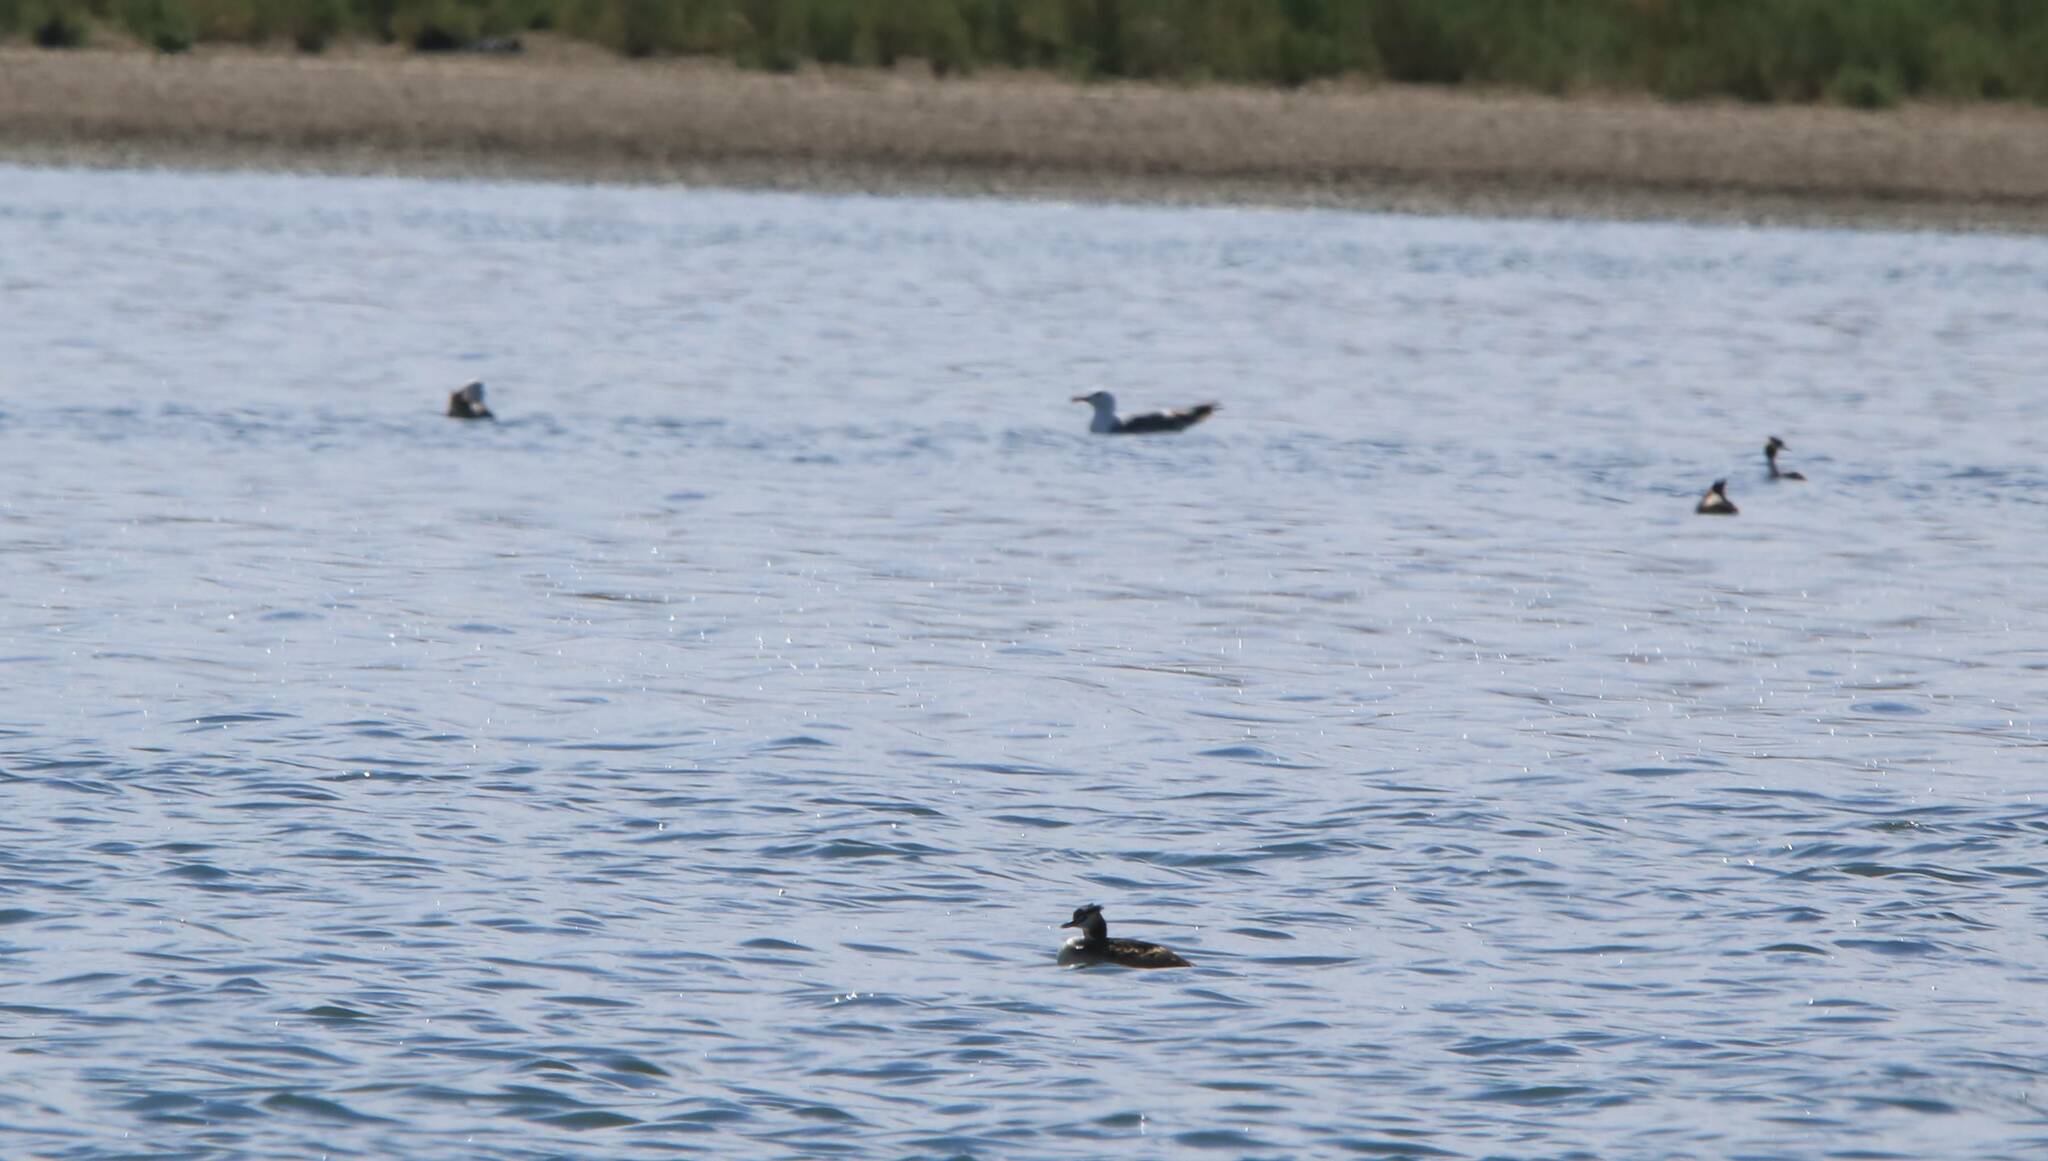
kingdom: Animalia
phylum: Chordata
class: Aves
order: Podicipediformes
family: Podicipedidae
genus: Podiceps
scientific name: Podiceps cristatus
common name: Great crested grebe
